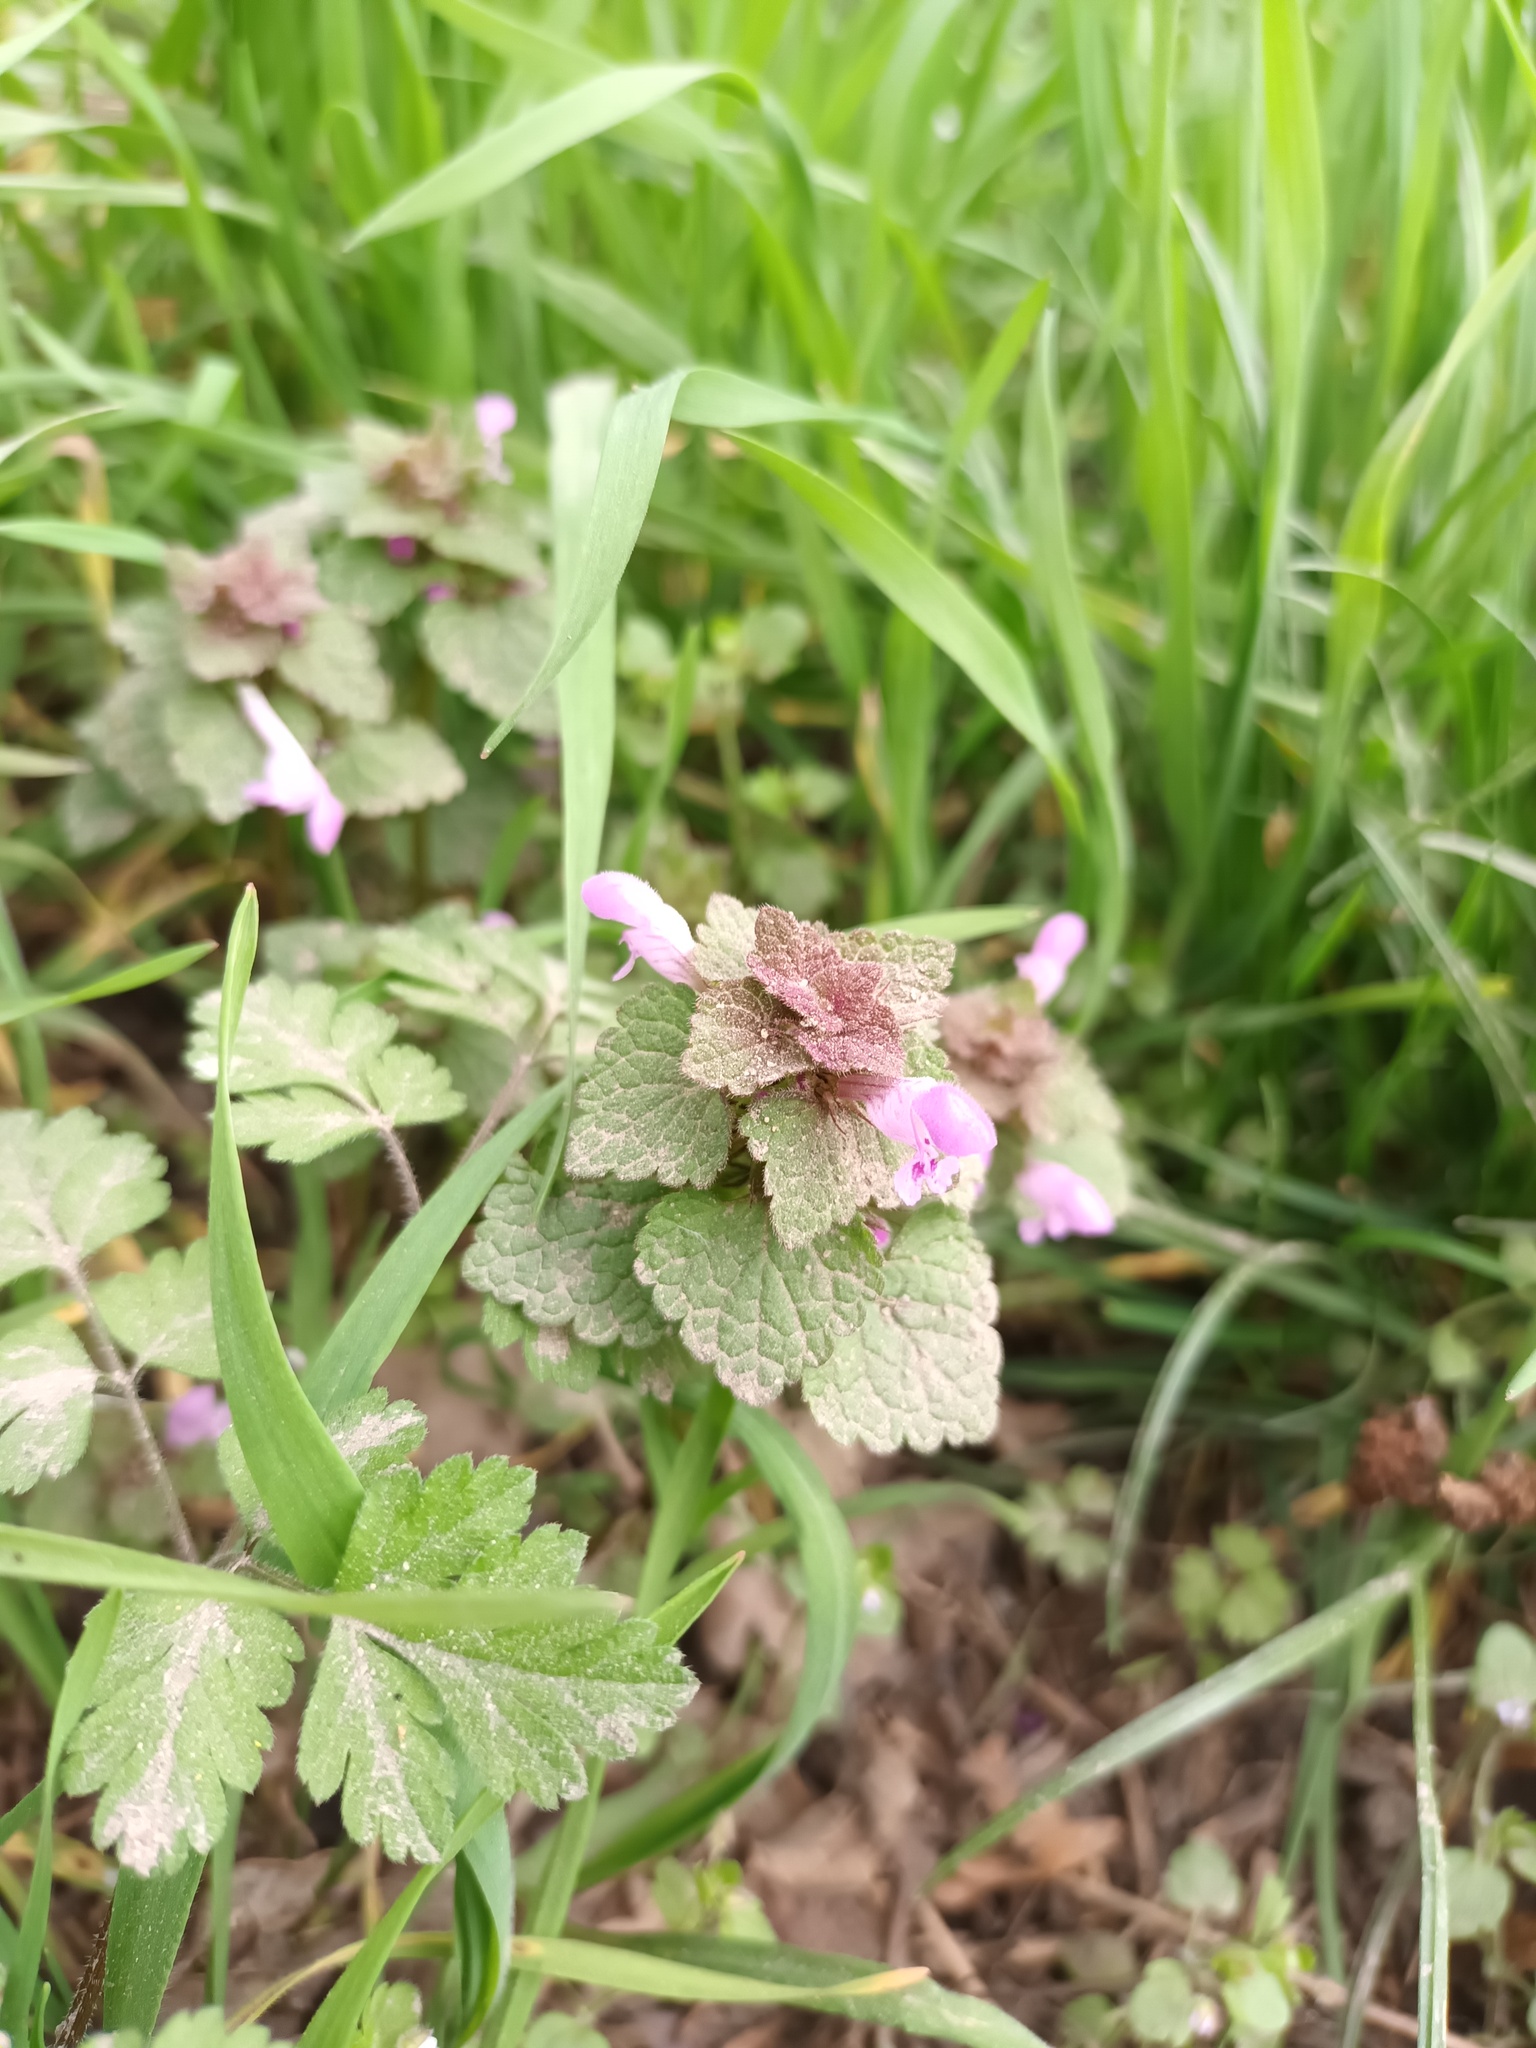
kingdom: Plantae
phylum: Tracheophyta
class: Magnoliopsida
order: Lamiales
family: Lamiaceae
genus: Lamium
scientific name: Lamium purpureum
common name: Red dead-nettle
